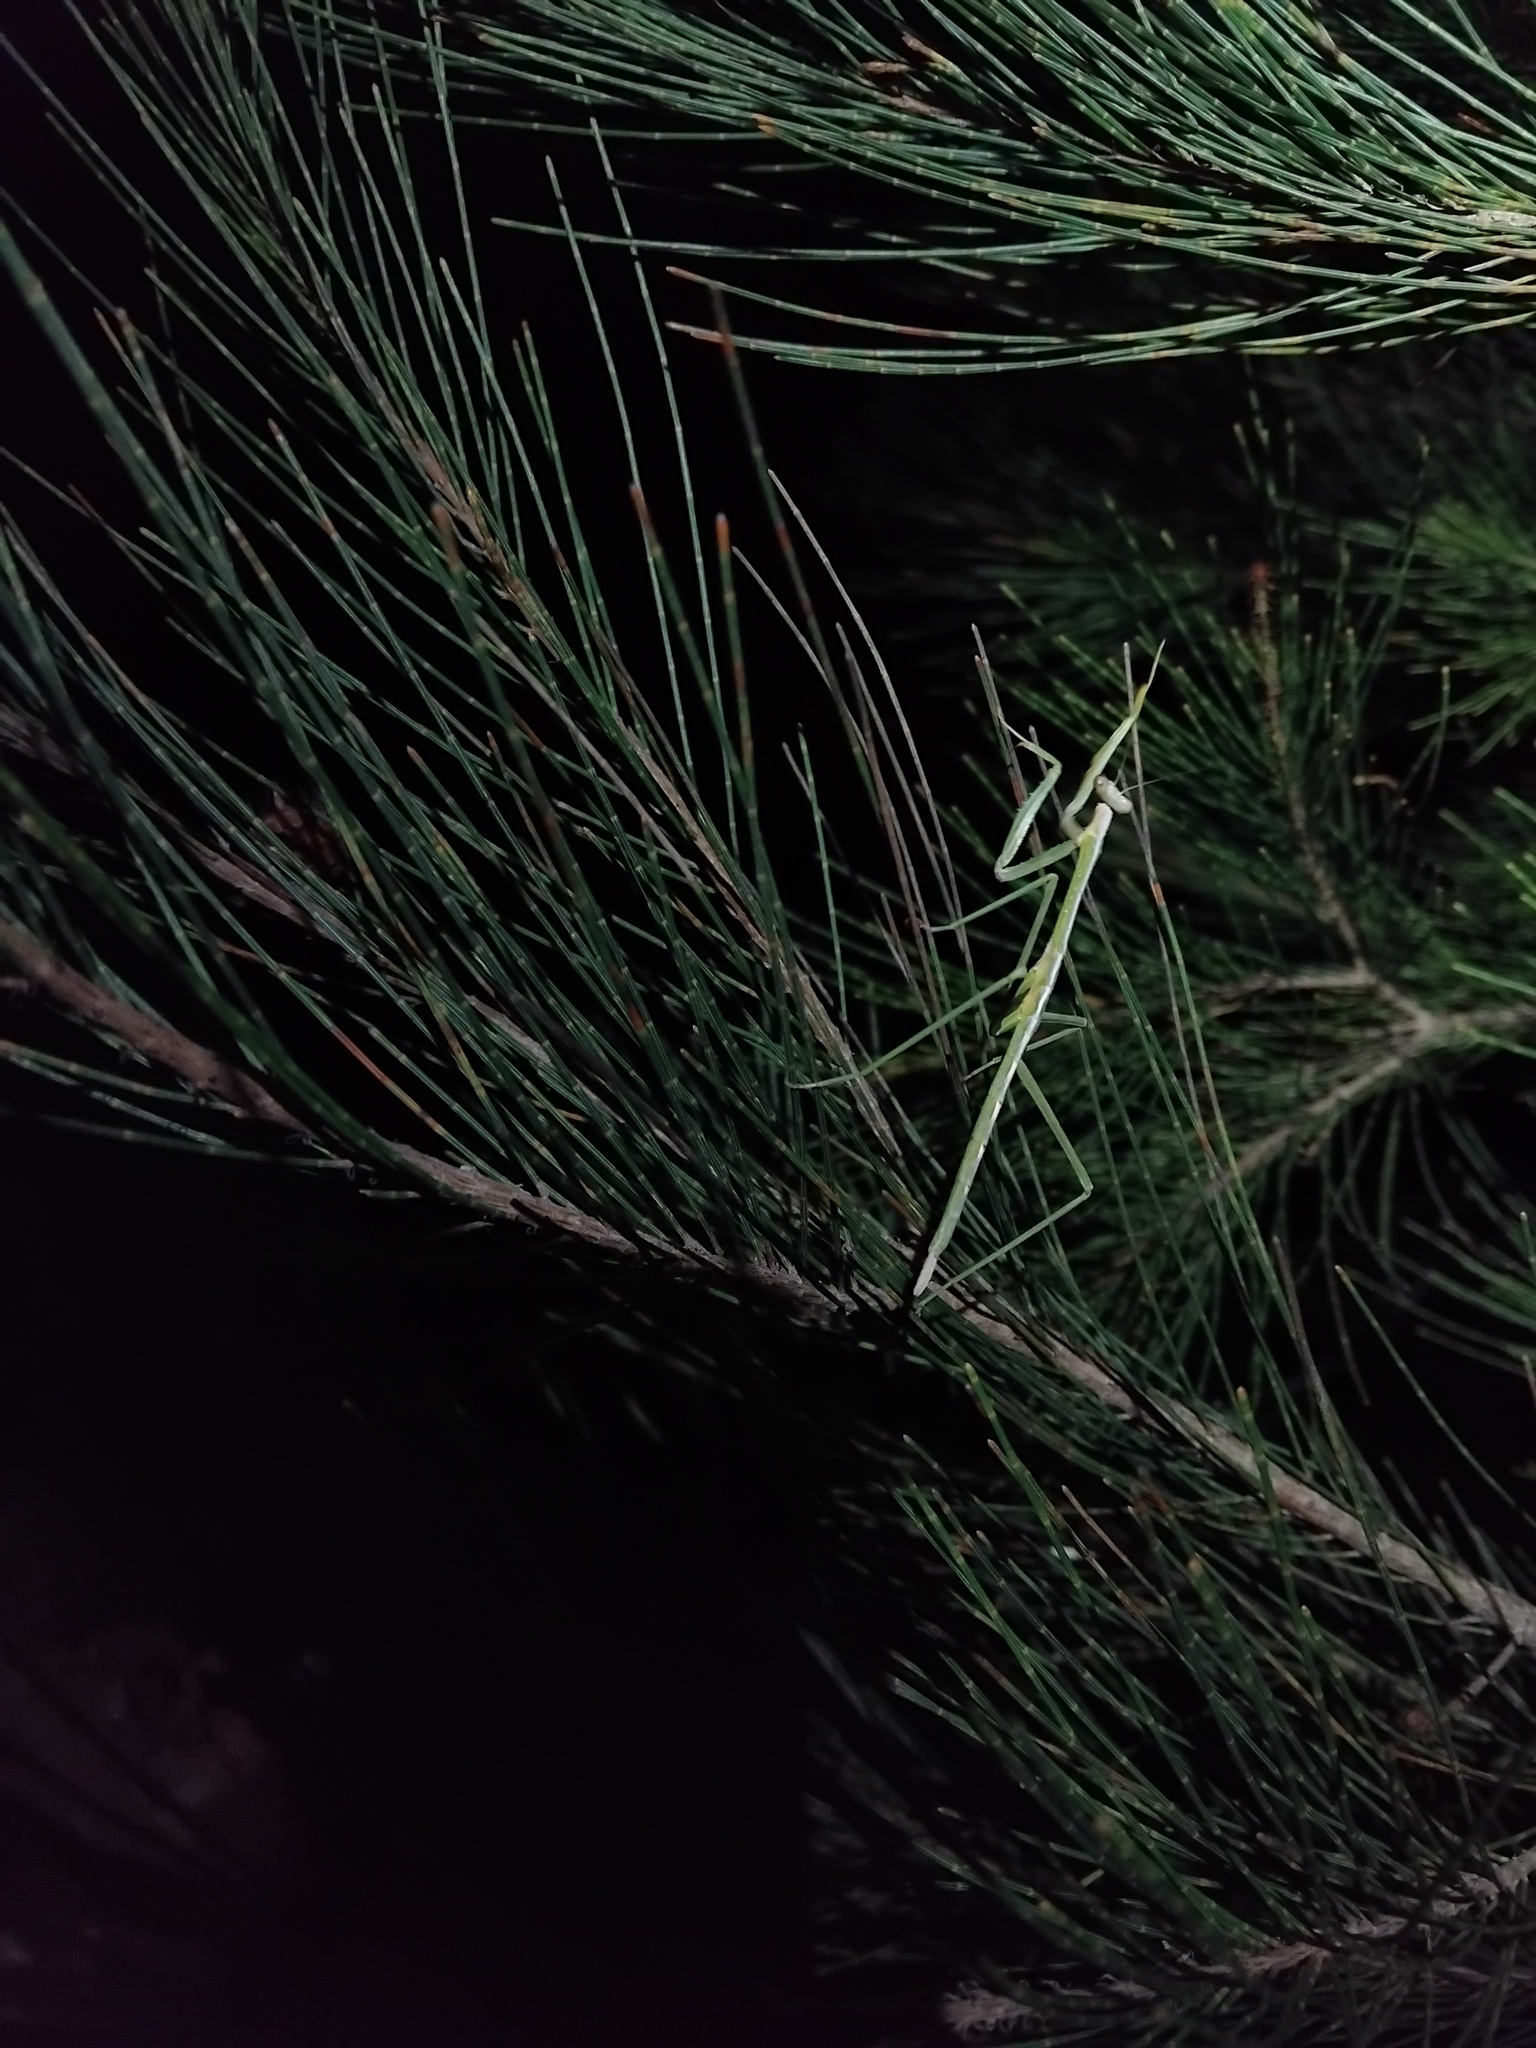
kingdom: Animalia
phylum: Arthropoda
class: Insecta
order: Mantodea
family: Mantidae
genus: Archimantis
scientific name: Archimantis latistyla
